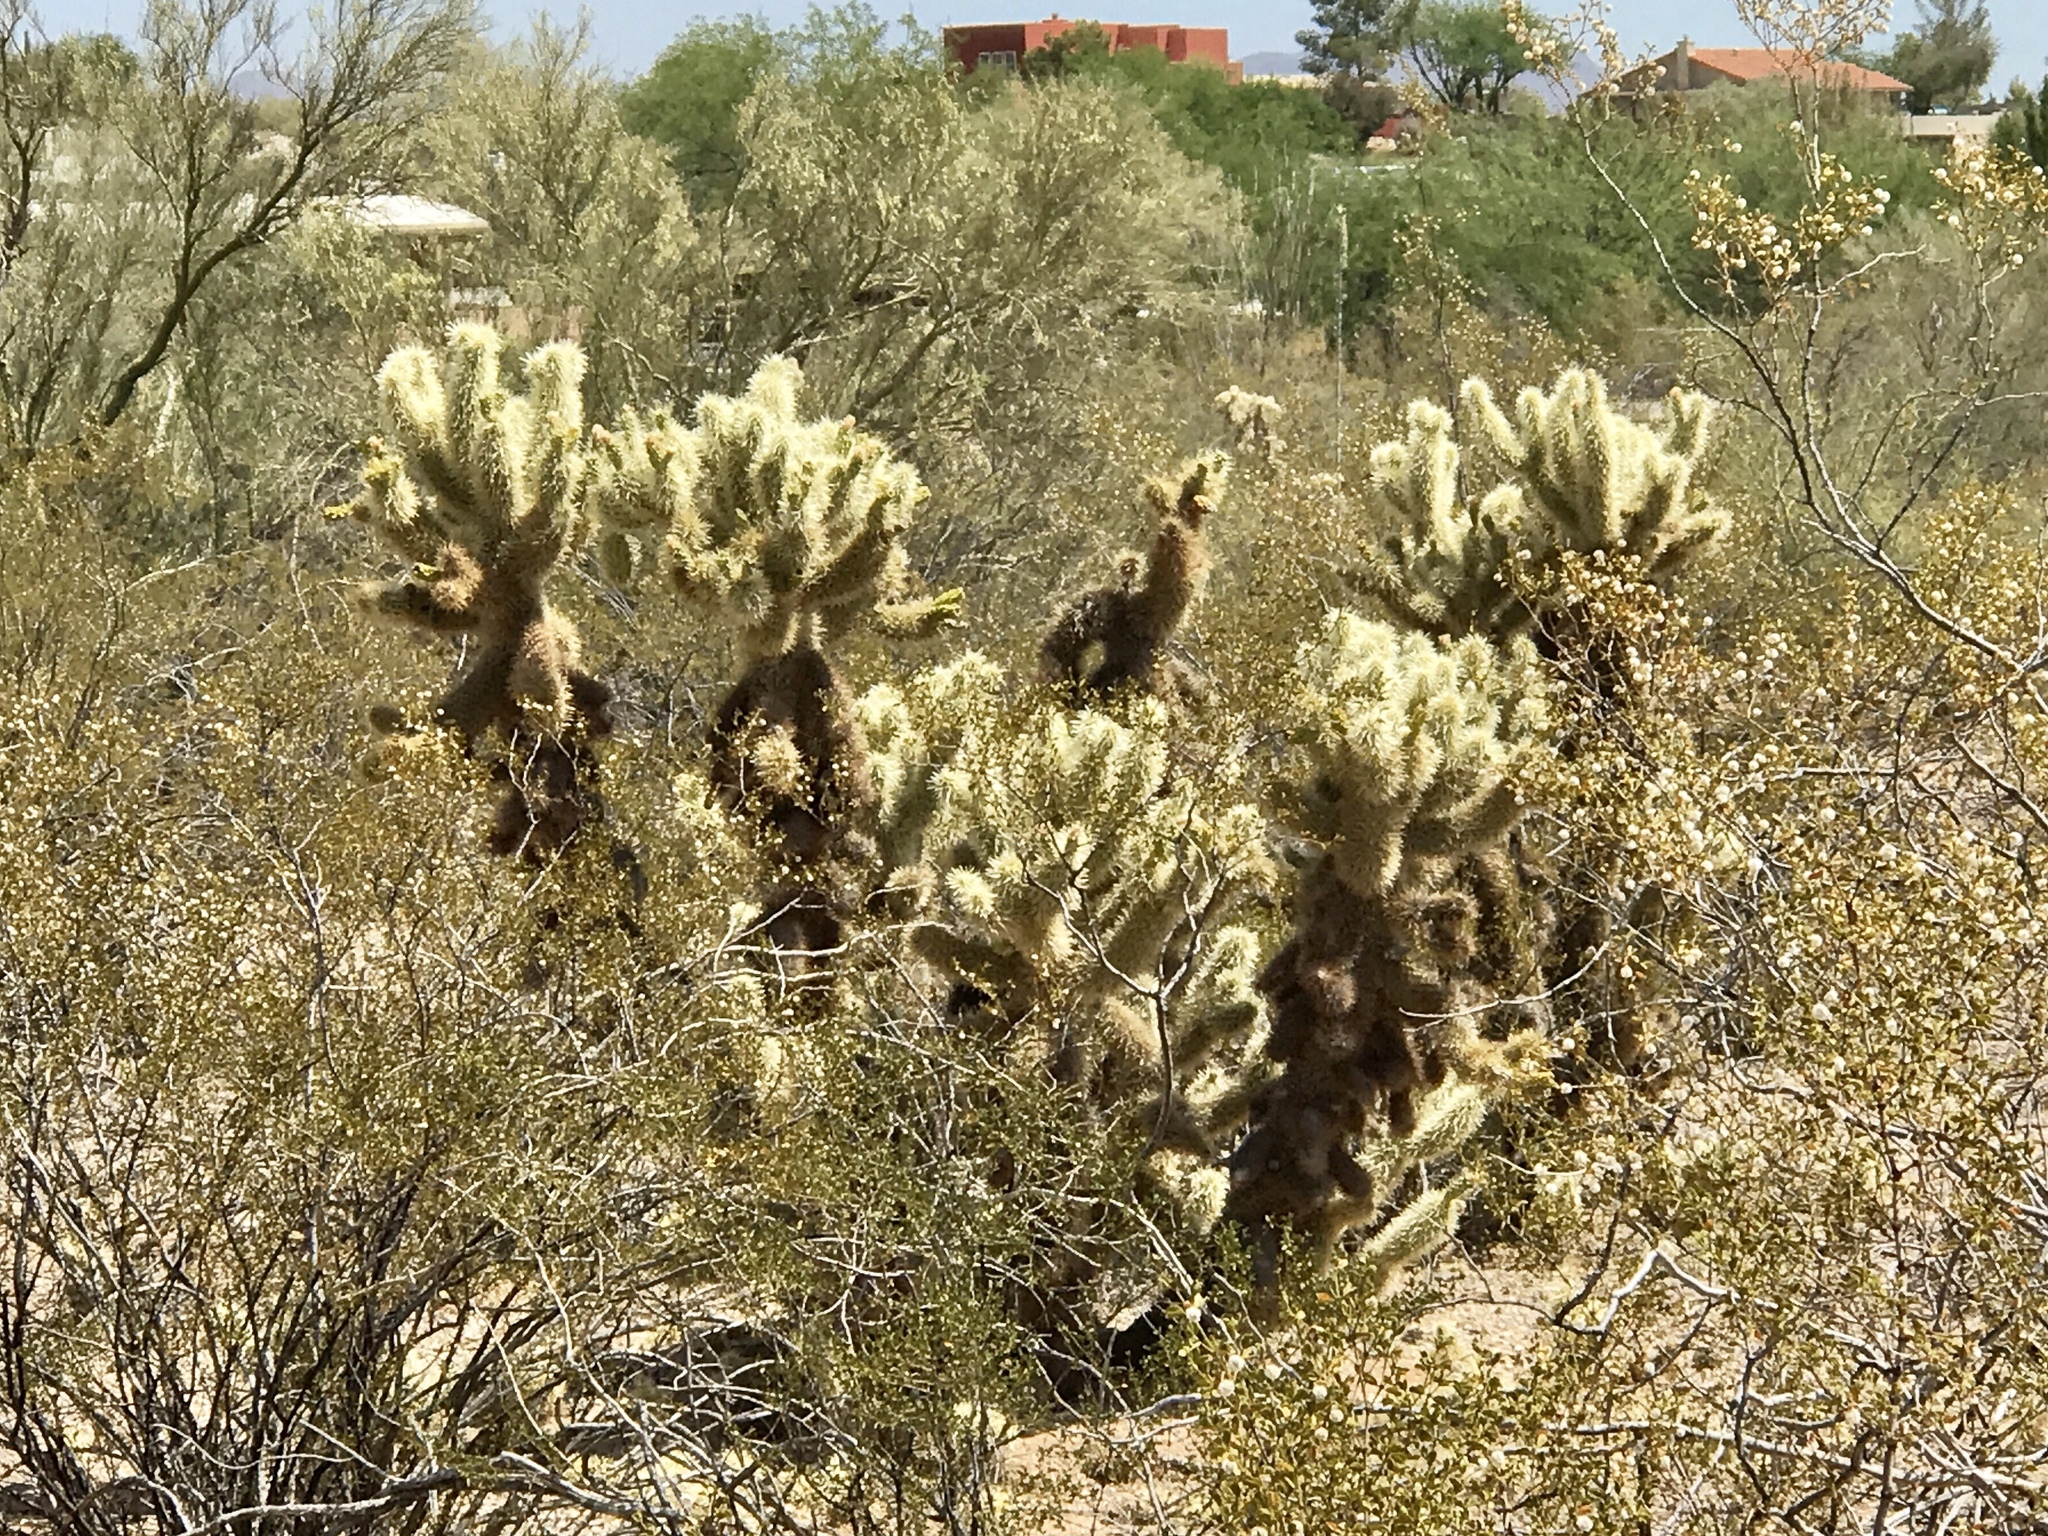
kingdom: Plantae
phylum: Tracheophyta
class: Magnoliopsida
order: Caryophyllales
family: Cactaceae
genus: Cylindropuntia
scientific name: Cylindropuntia fosbergii
